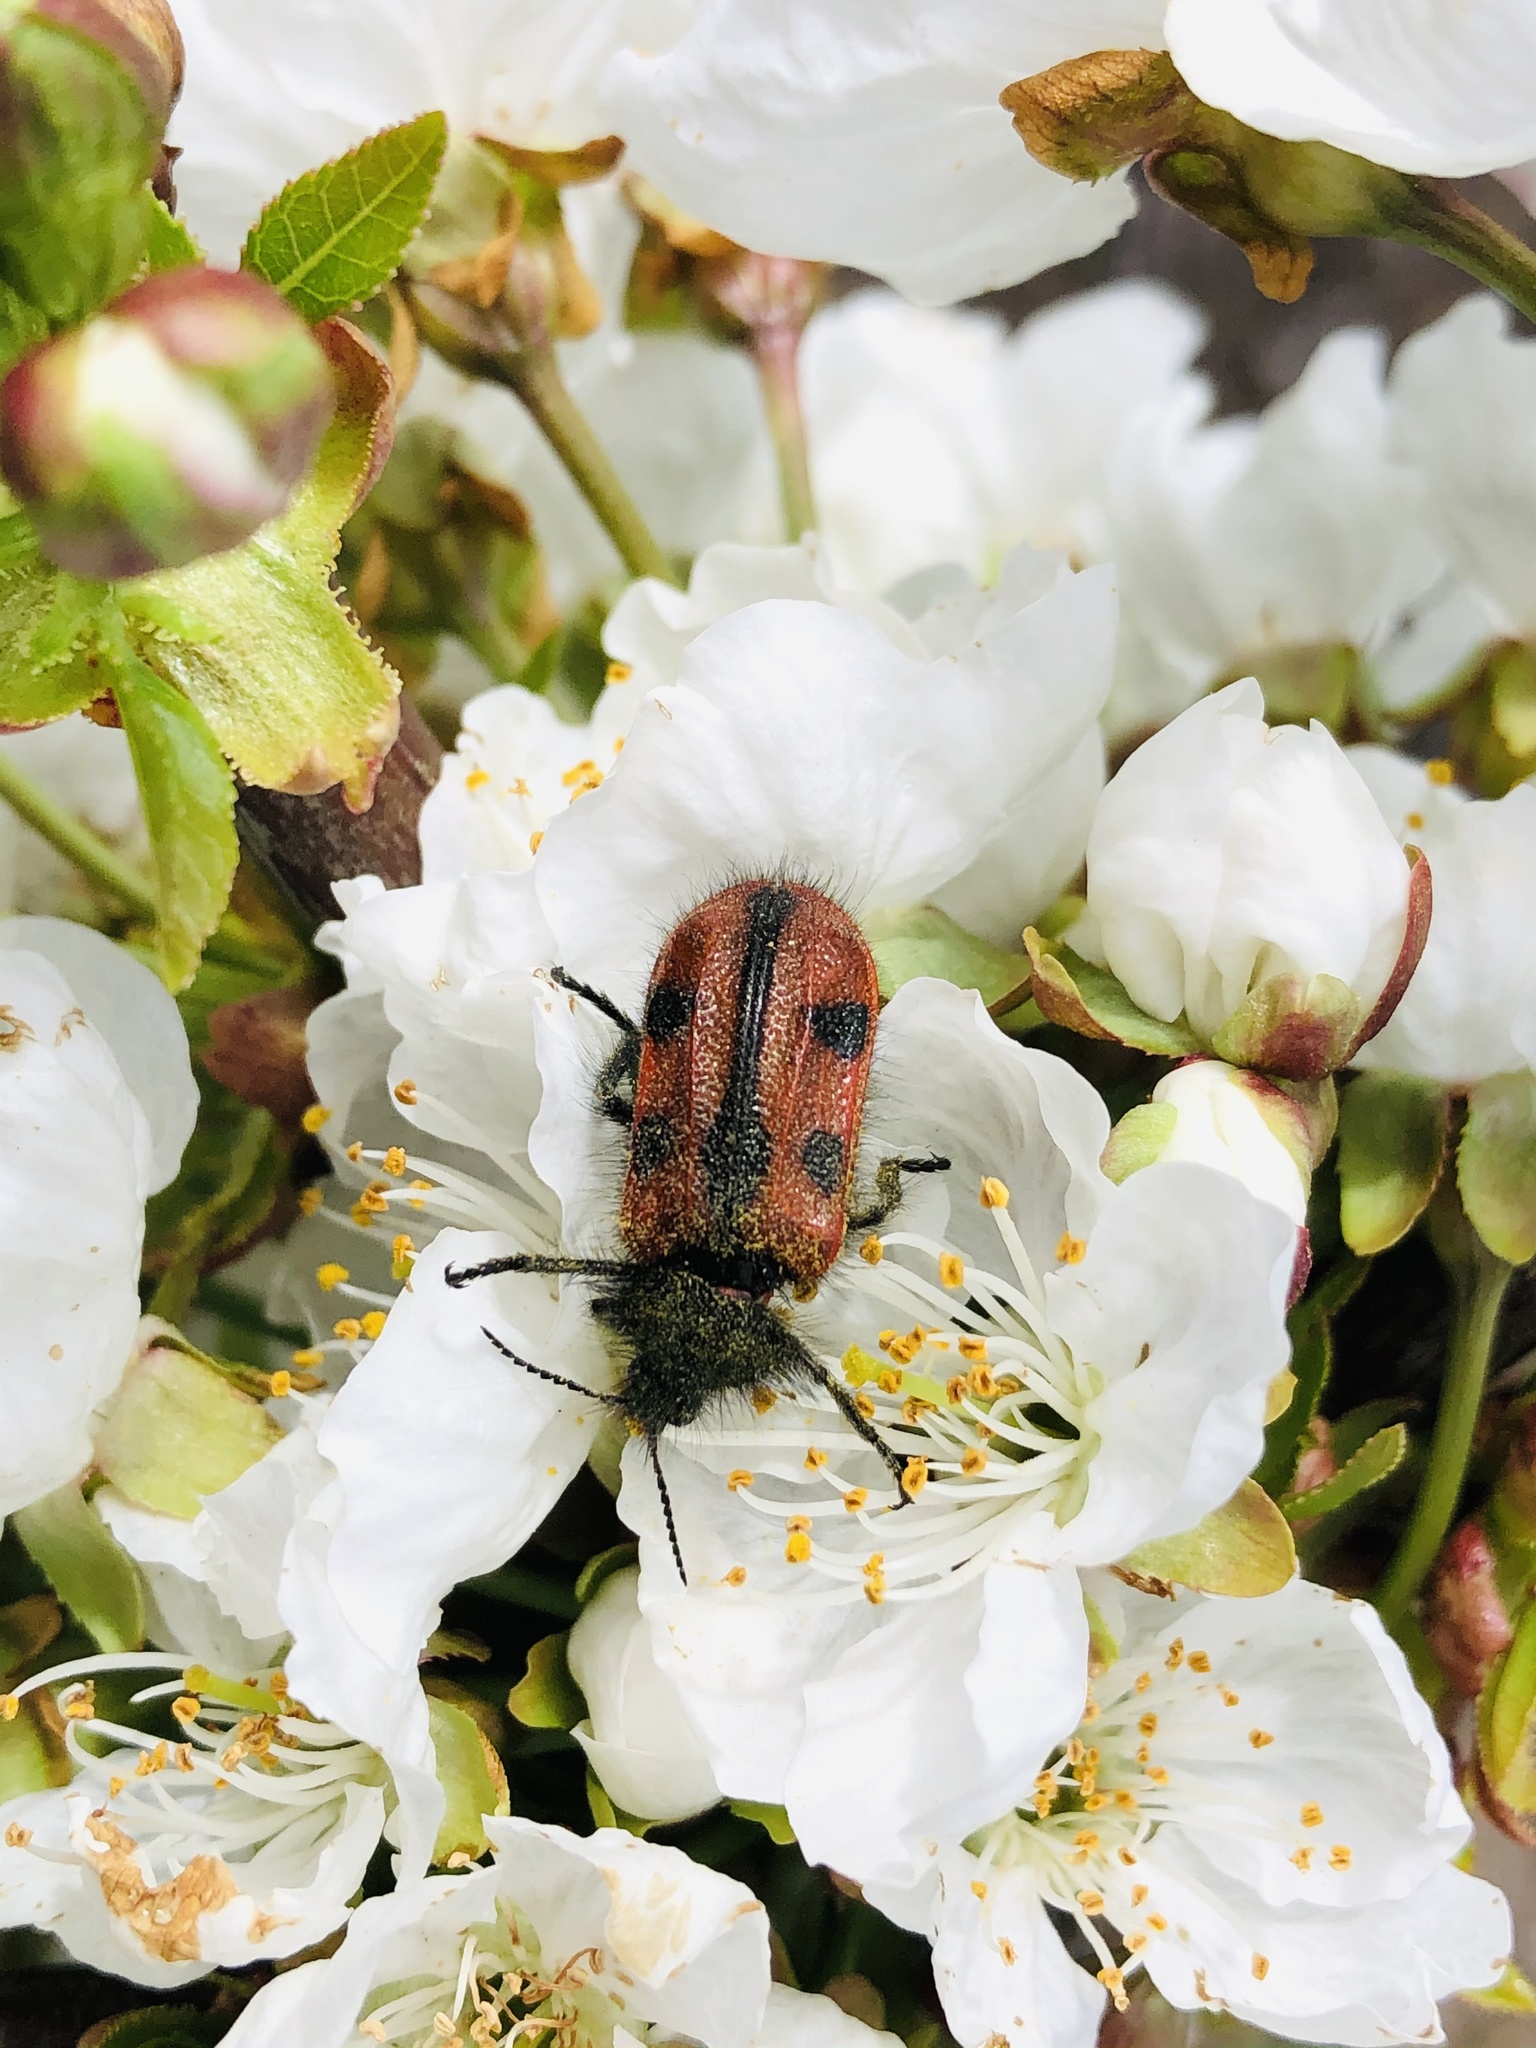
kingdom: Animalia
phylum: Arthropoda
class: Insecta
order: Coleoptera
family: Melyridae
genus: Astylus
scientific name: Astylus
